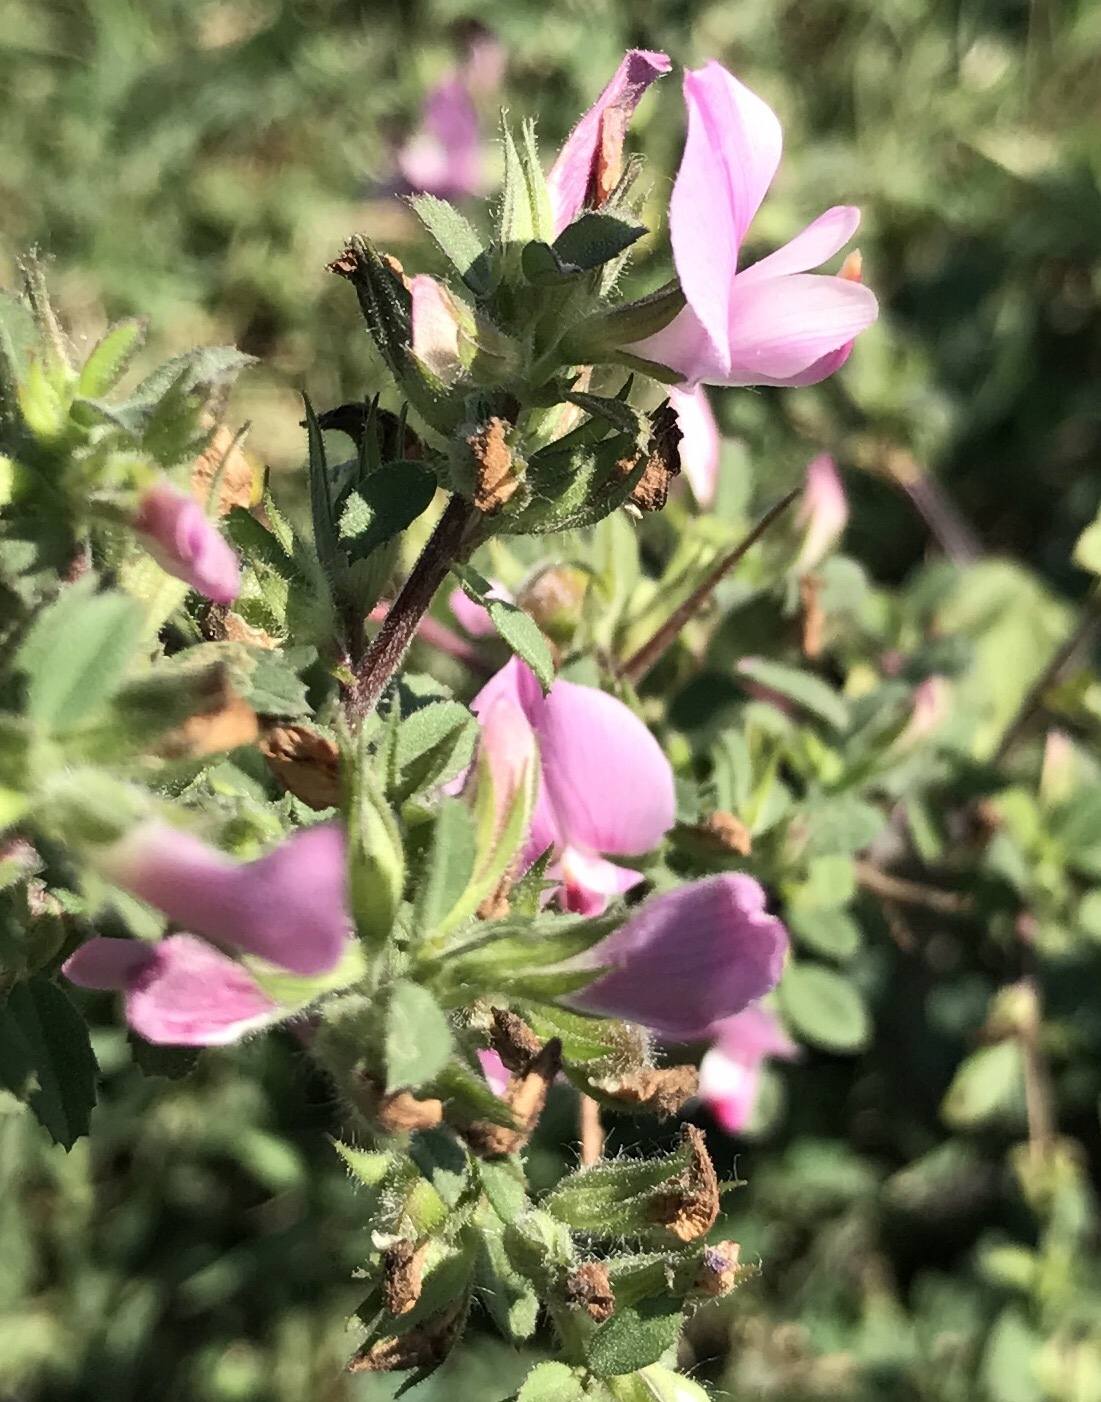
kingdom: Plantae
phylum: Tracheophyta
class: Magnoliopsida
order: Fabales
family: Fabaceae
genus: Ononis
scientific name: Ononis spinosa
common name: Spiny restharrow
